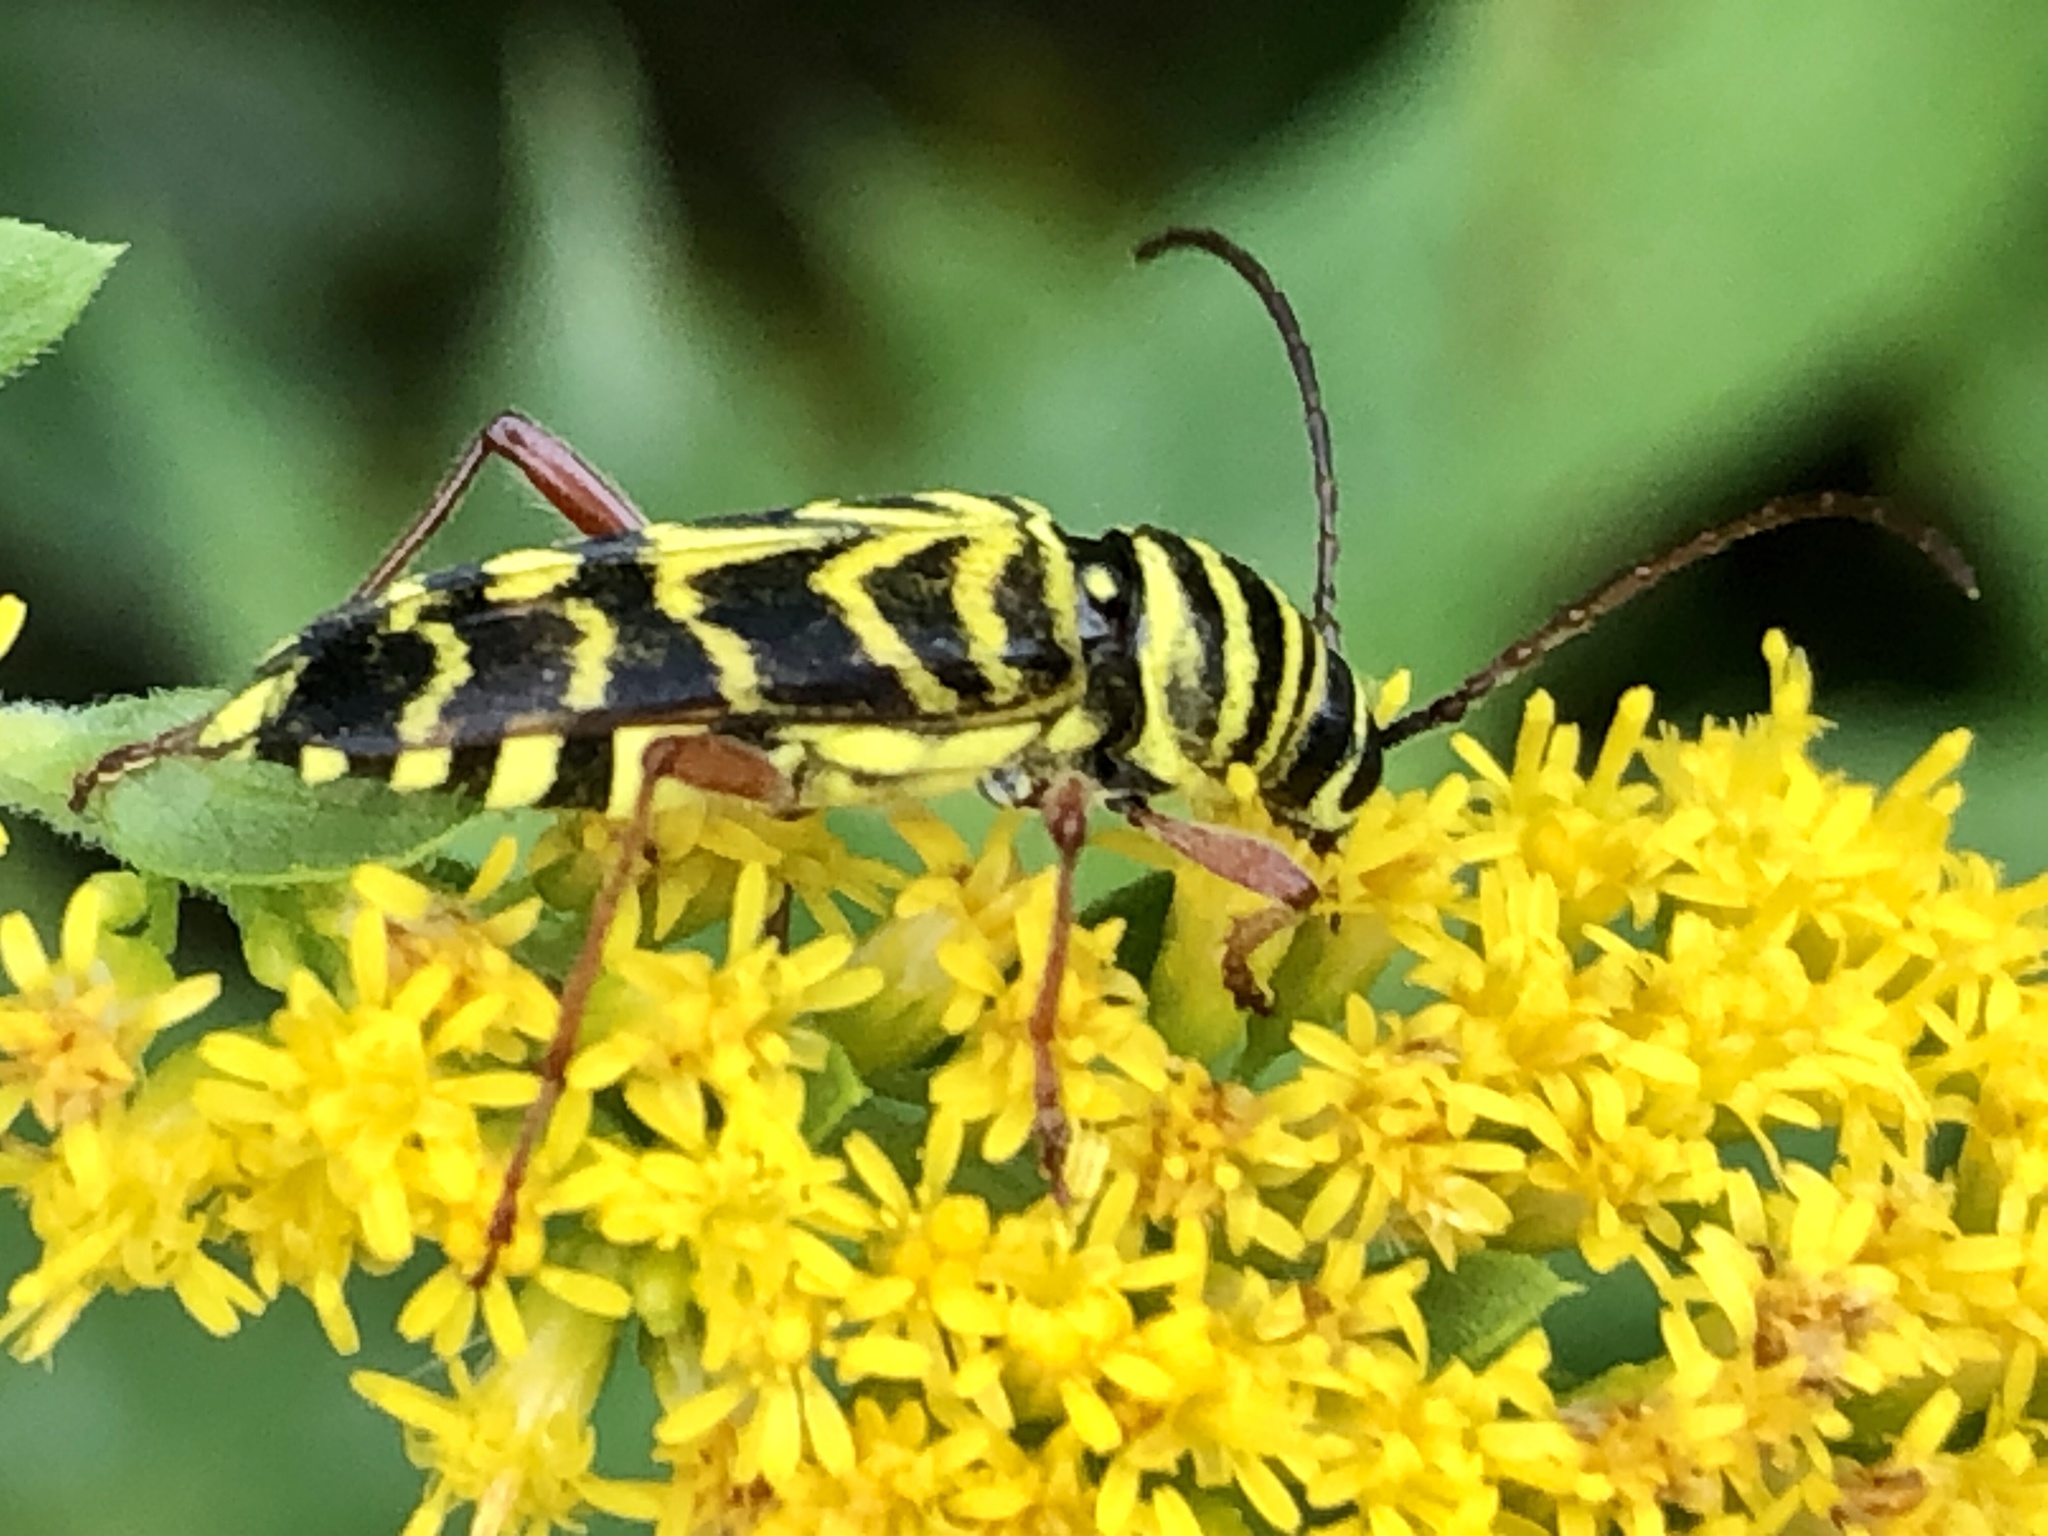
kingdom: Animalia
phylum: Arthropoda
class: Insecta
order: Coleoptera
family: Cerambycidae
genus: Megacyllene
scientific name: Megacyllene robiniae
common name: Locust borer
